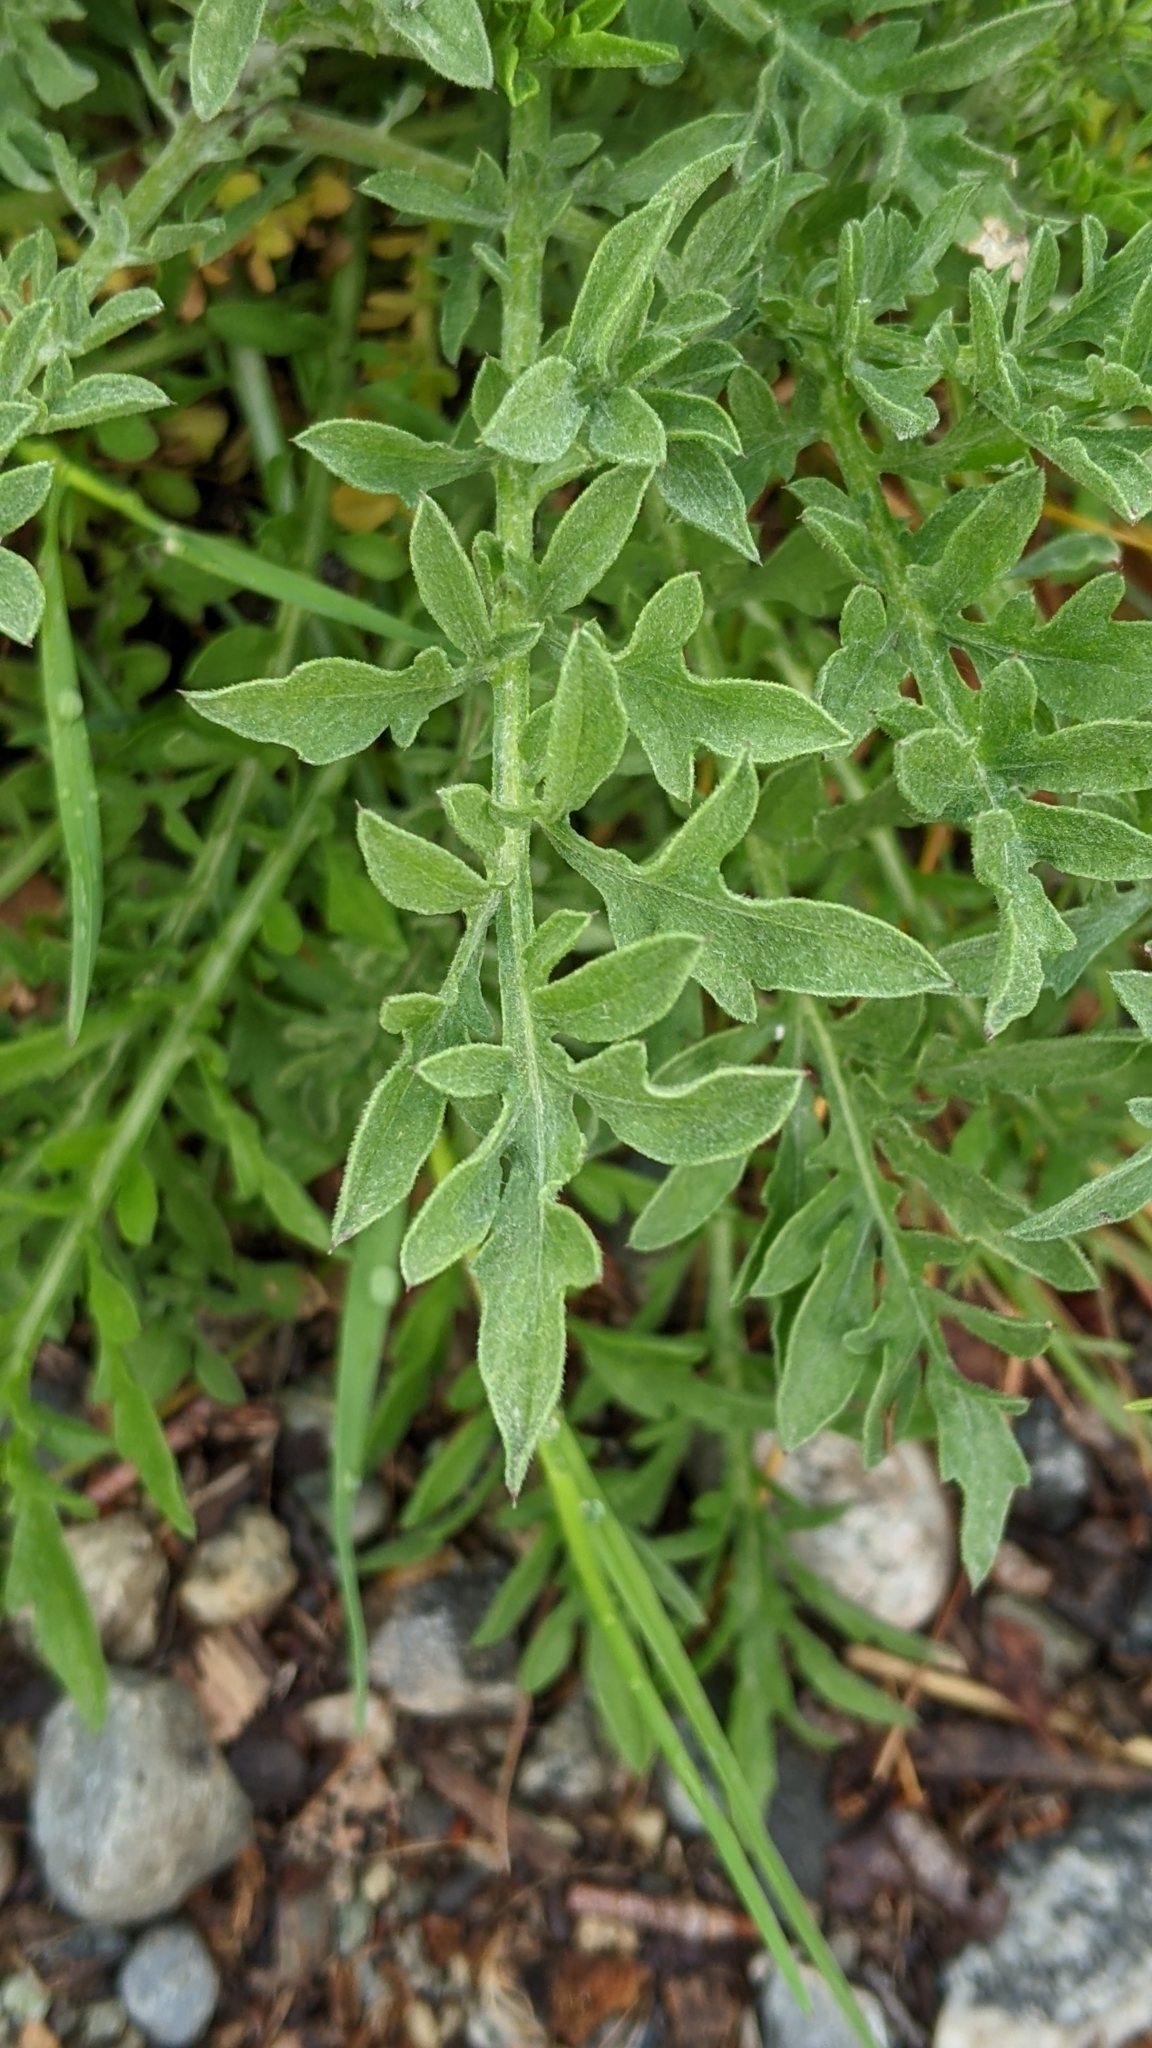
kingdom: Plantae
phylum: Tracheophyta
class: Magnoliopsida
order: Asterales
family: Asteraceae
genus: Centaurea
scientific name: Centaurea diffusa
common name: Diffuse knapweed
